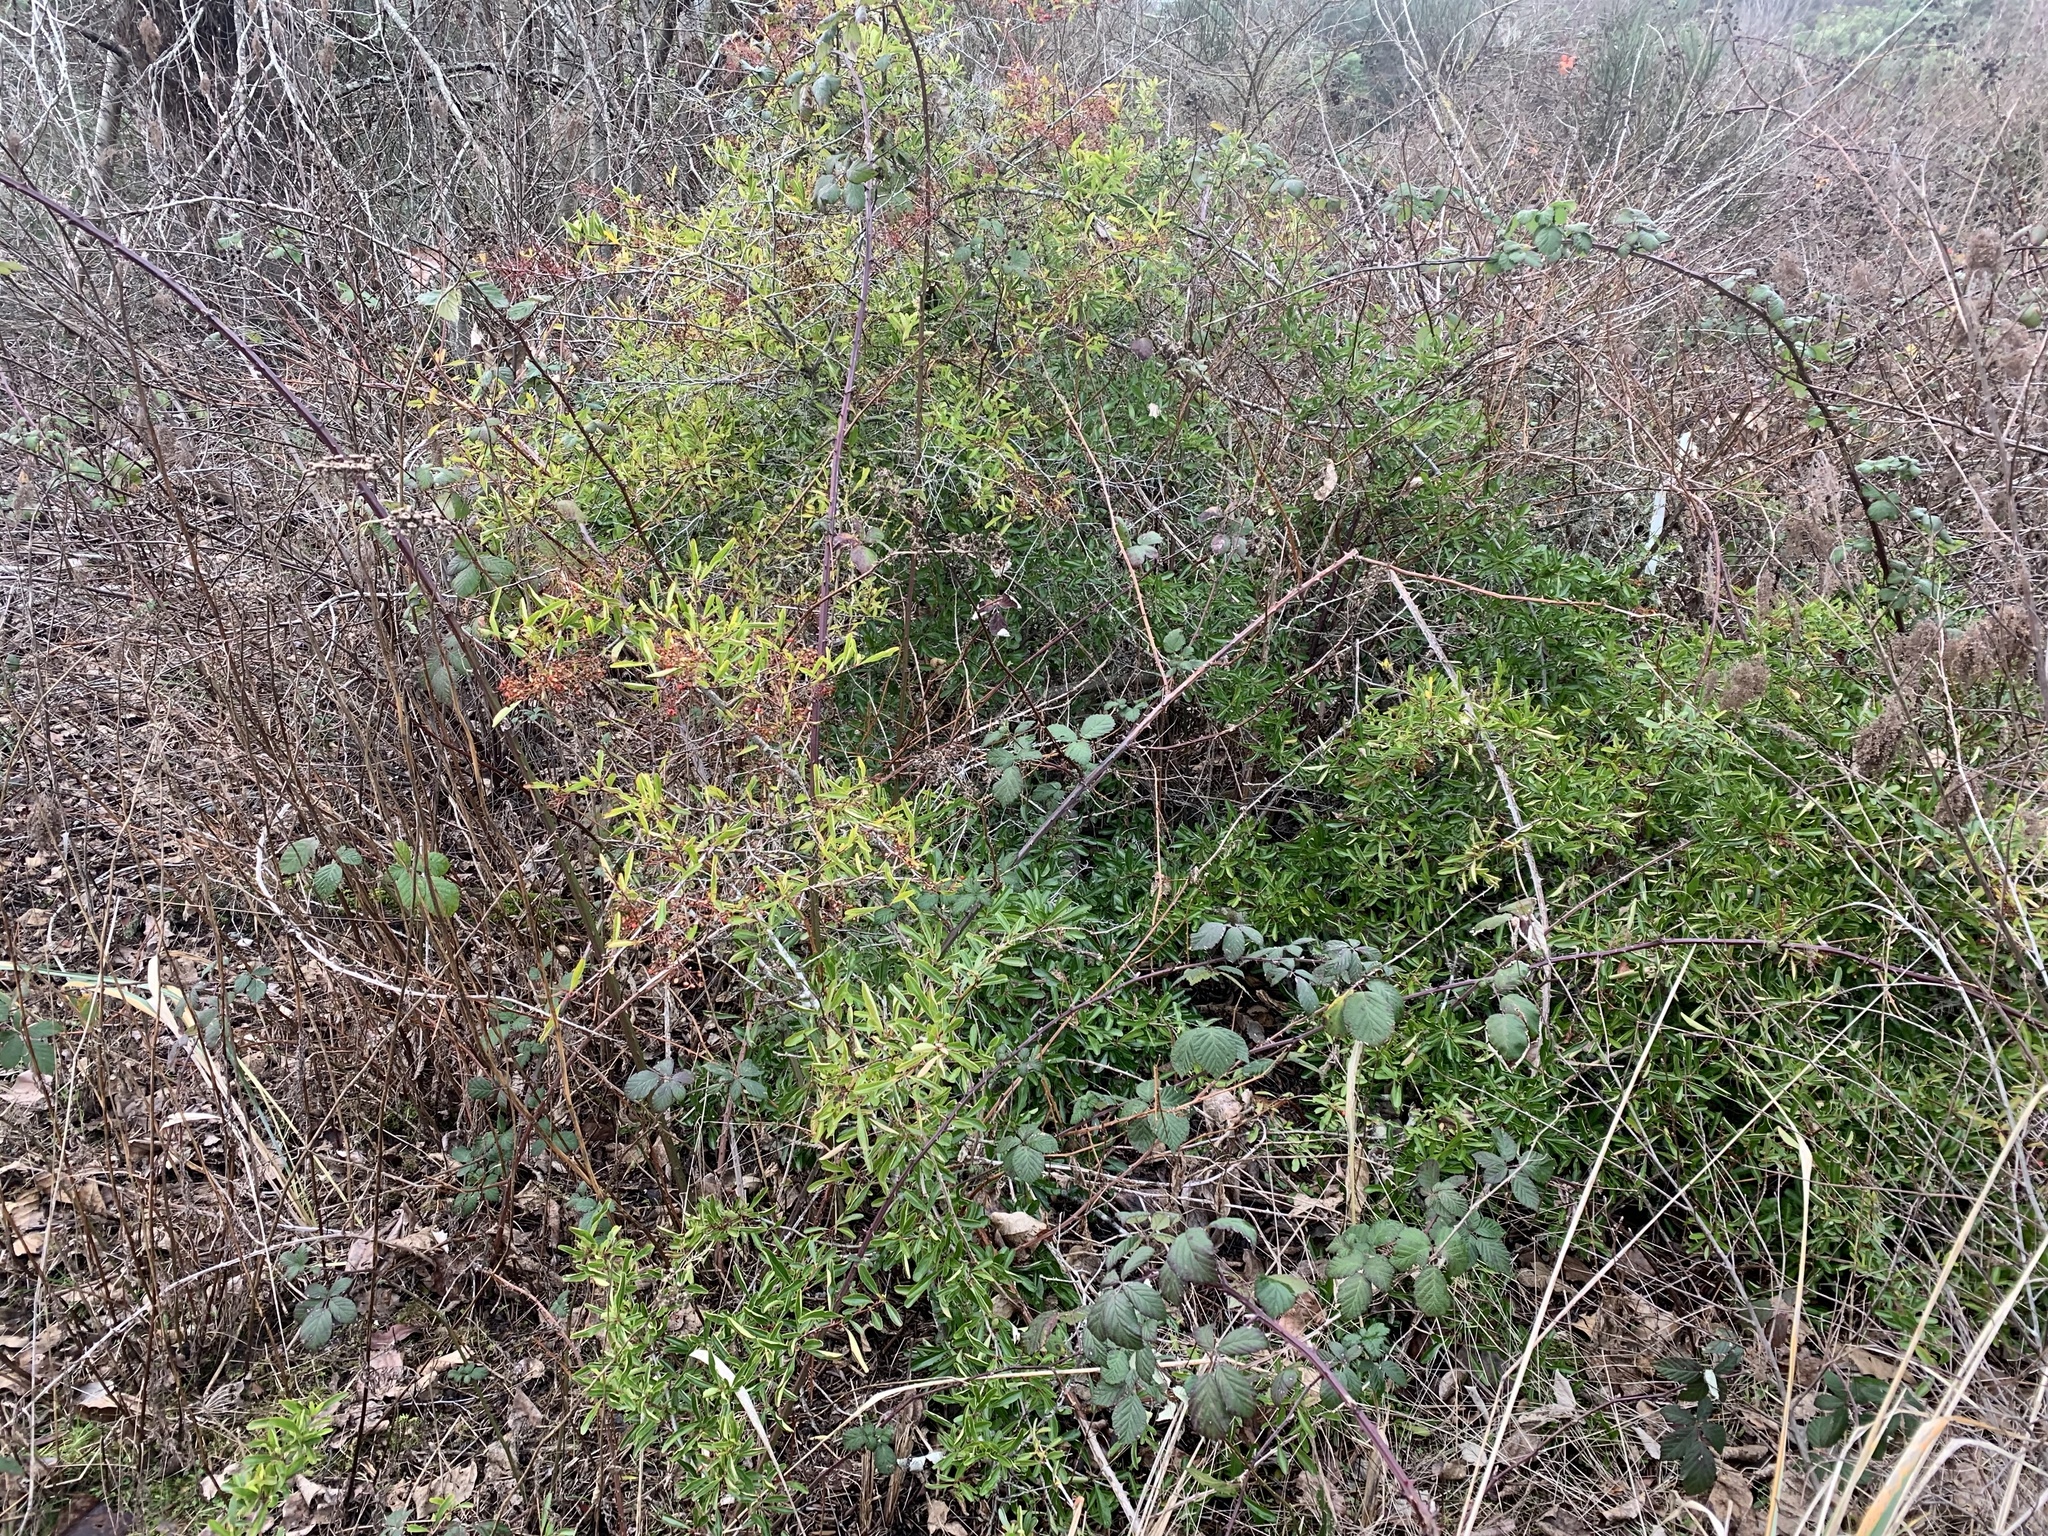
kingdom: Plantae
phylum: Tracheophyta
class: Magnoliopsida
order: Rosales
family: Rosaceae
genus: Pyracantha
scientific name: Pyracantha fortuneana
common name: Chinese firethorn
